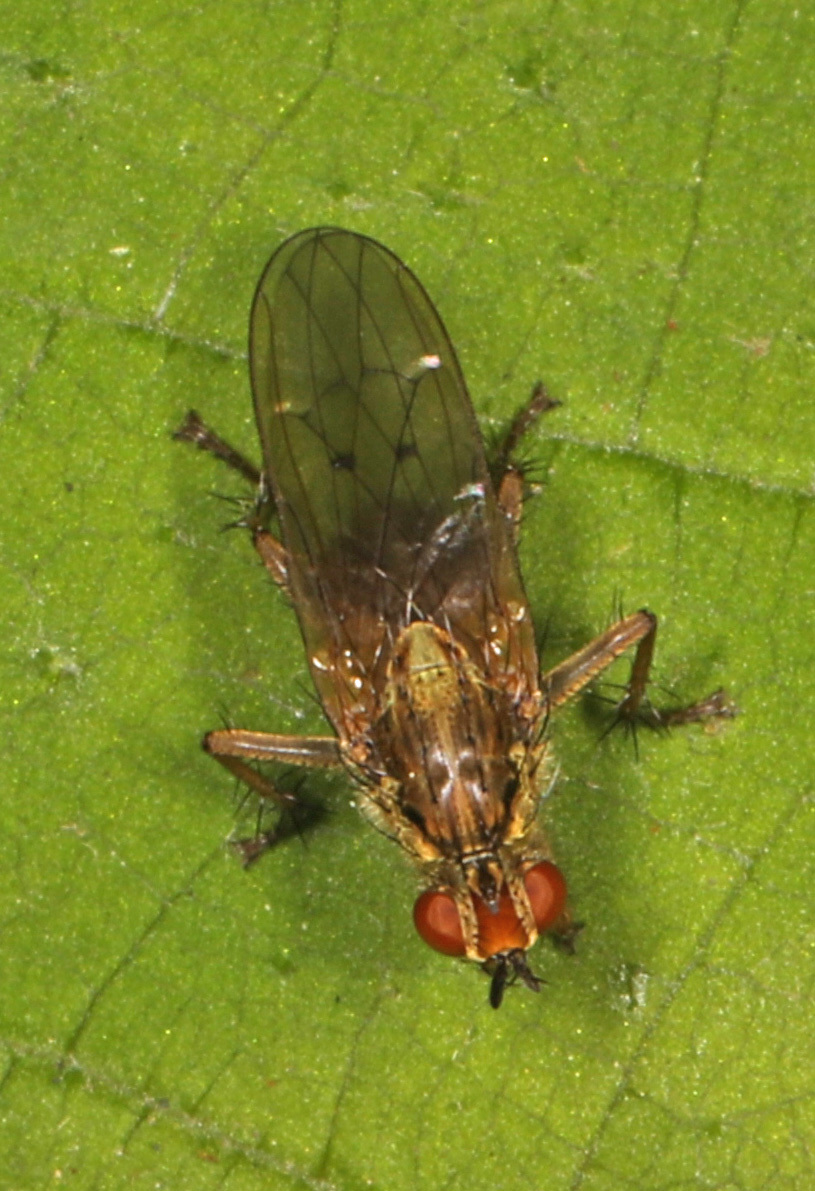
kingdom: Animalia
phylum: Arthropoda
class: Insecta
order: Diptera
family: Scathophagidae
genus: Scathophaga
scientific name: Scathophaga stercoraria
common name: Yellow dung fly
